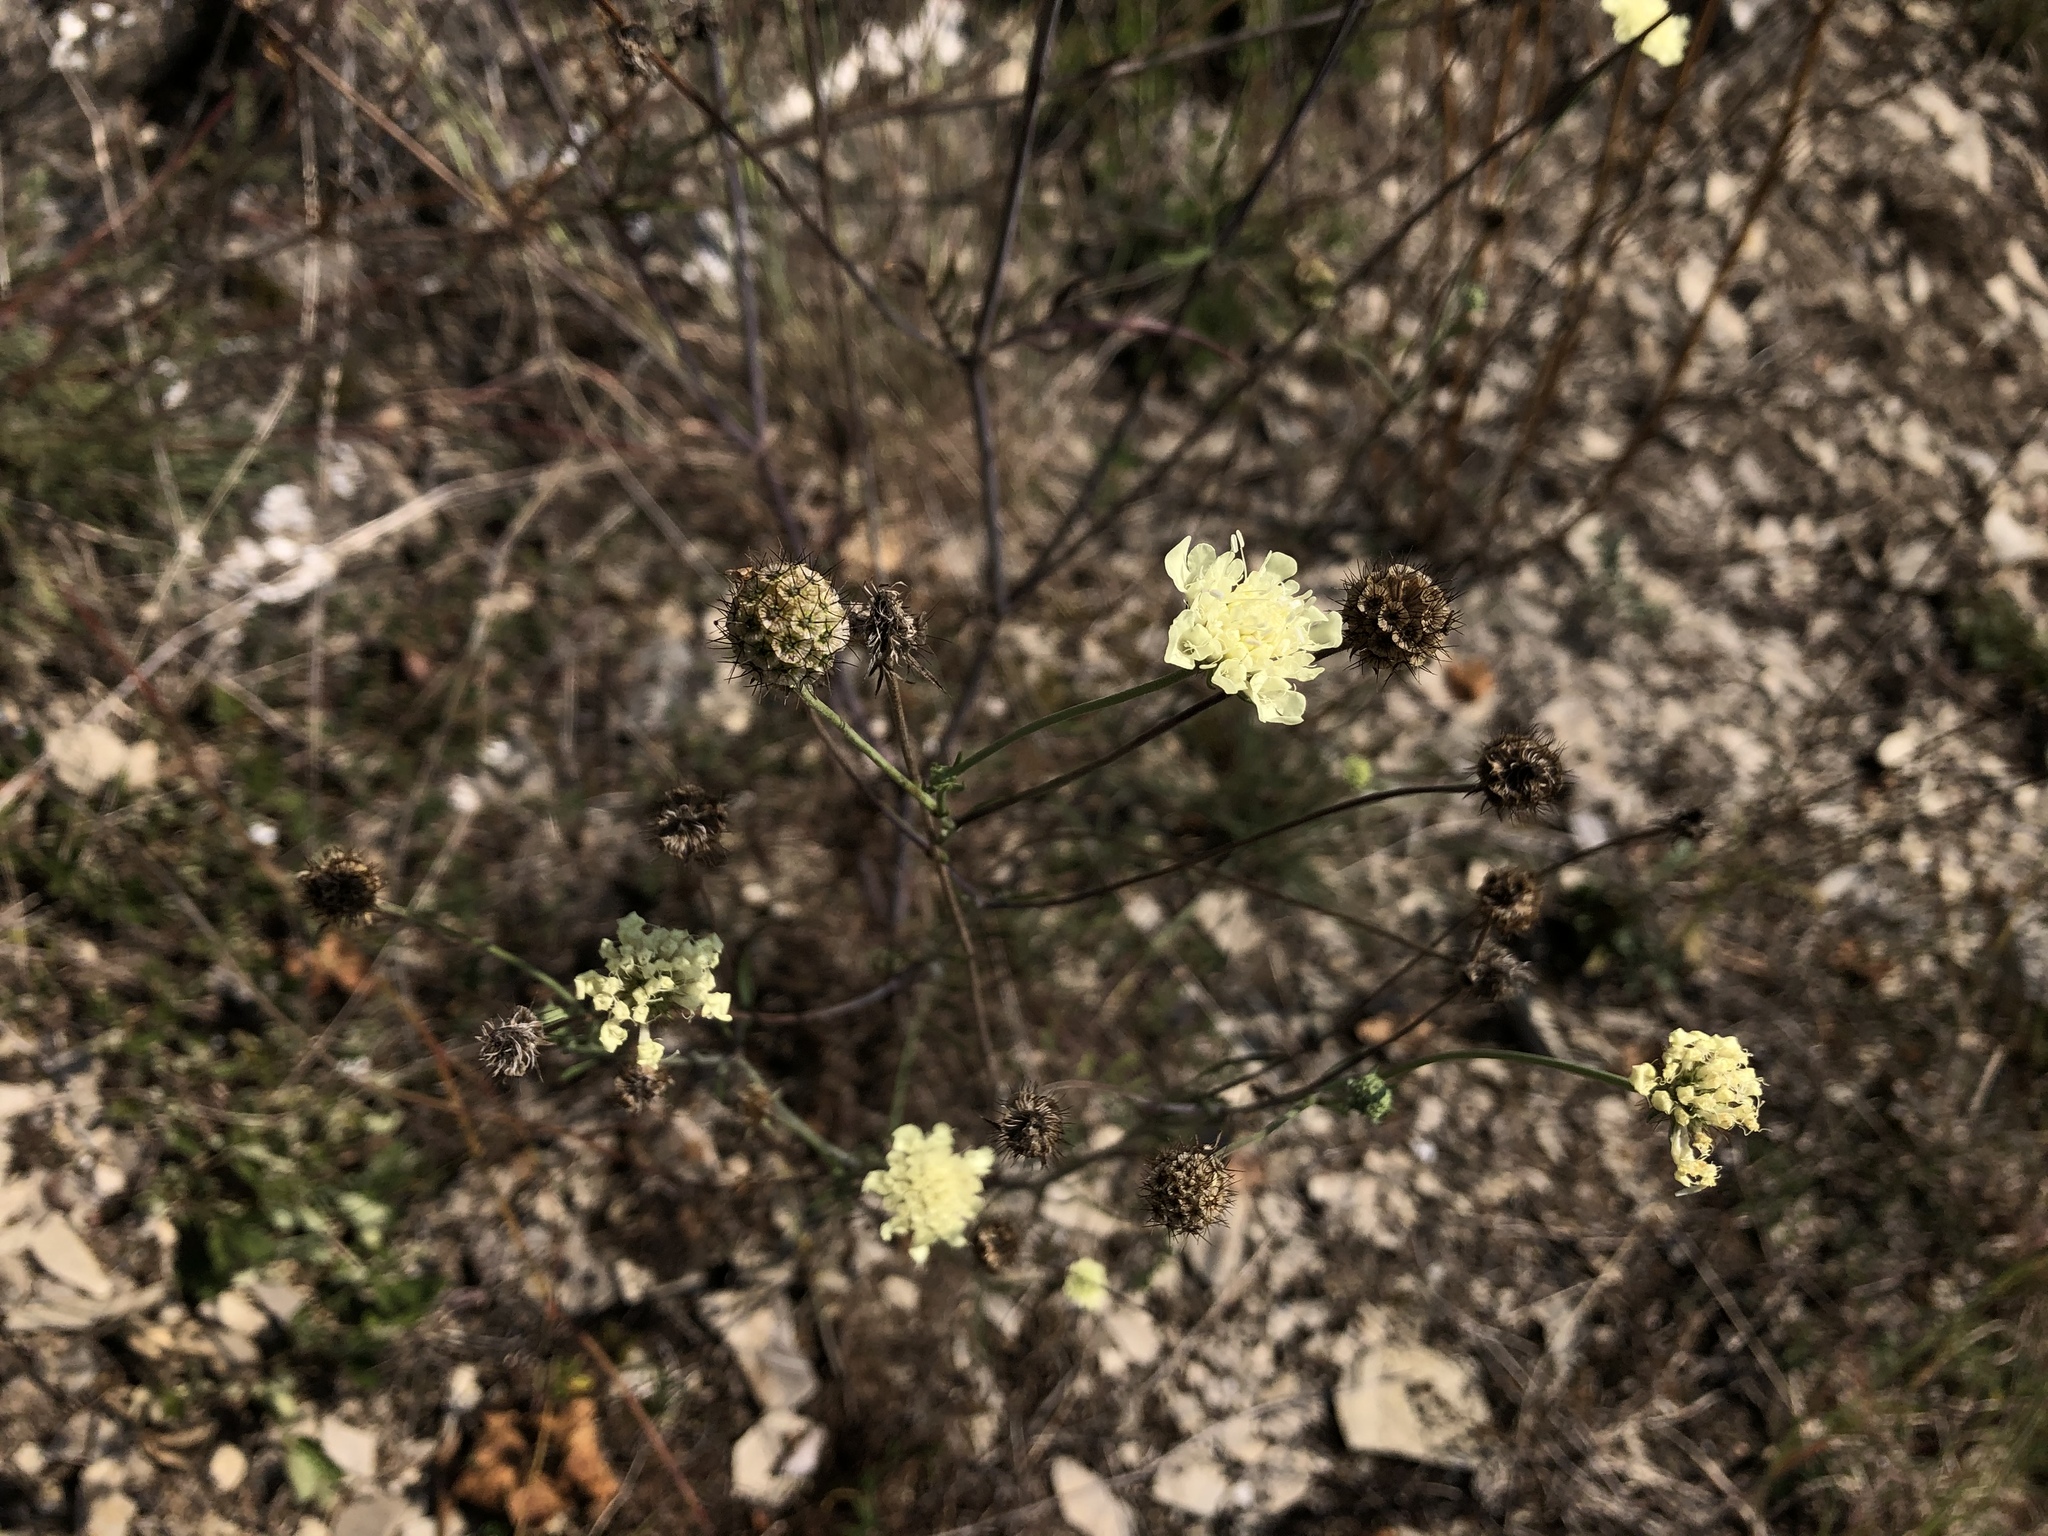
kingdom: Plantae
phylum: Tracheophyta
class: Magnoliopsida
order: Dipsacales
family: Caprifoliaceae
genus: Scabiosa
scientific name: Scabiosa ochroleuca
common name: Cream pincushions
